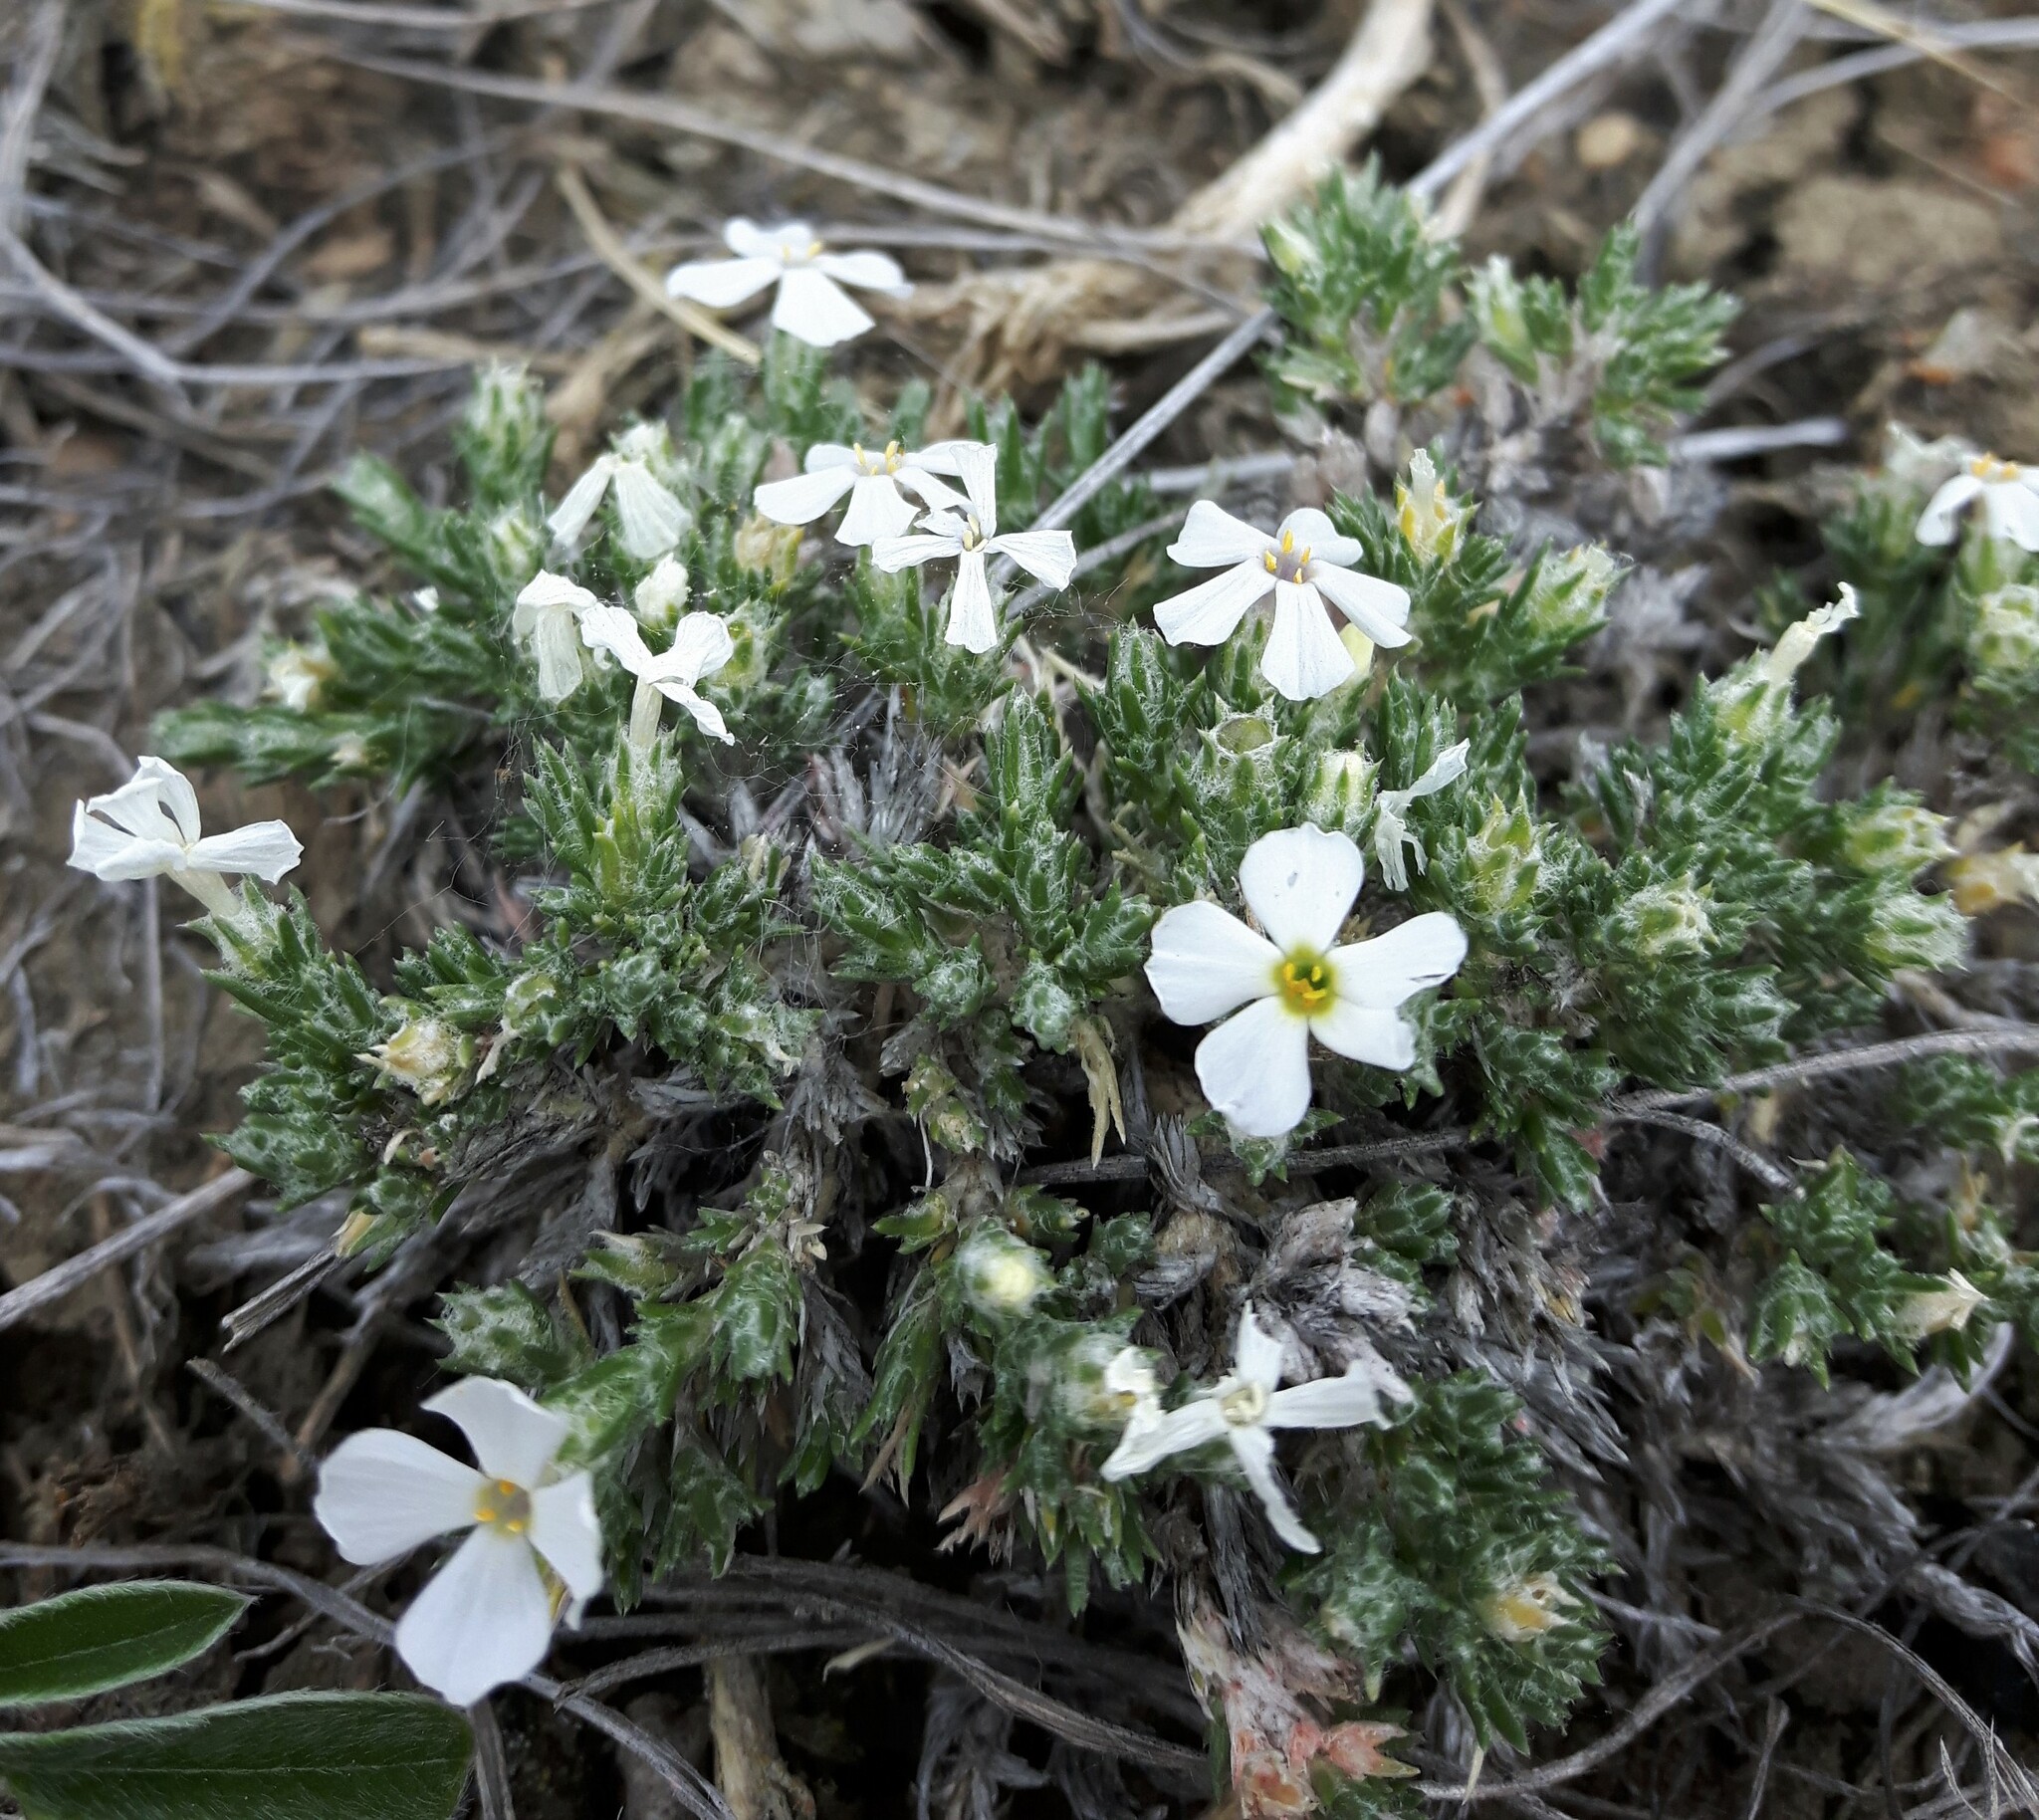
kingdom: Plantae
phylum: Tracheophyta
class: Magnoliopsida
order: Ericales
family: Polemoniaceae
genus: Phlox
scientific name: Phlox hoodii
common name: Moss phlox
